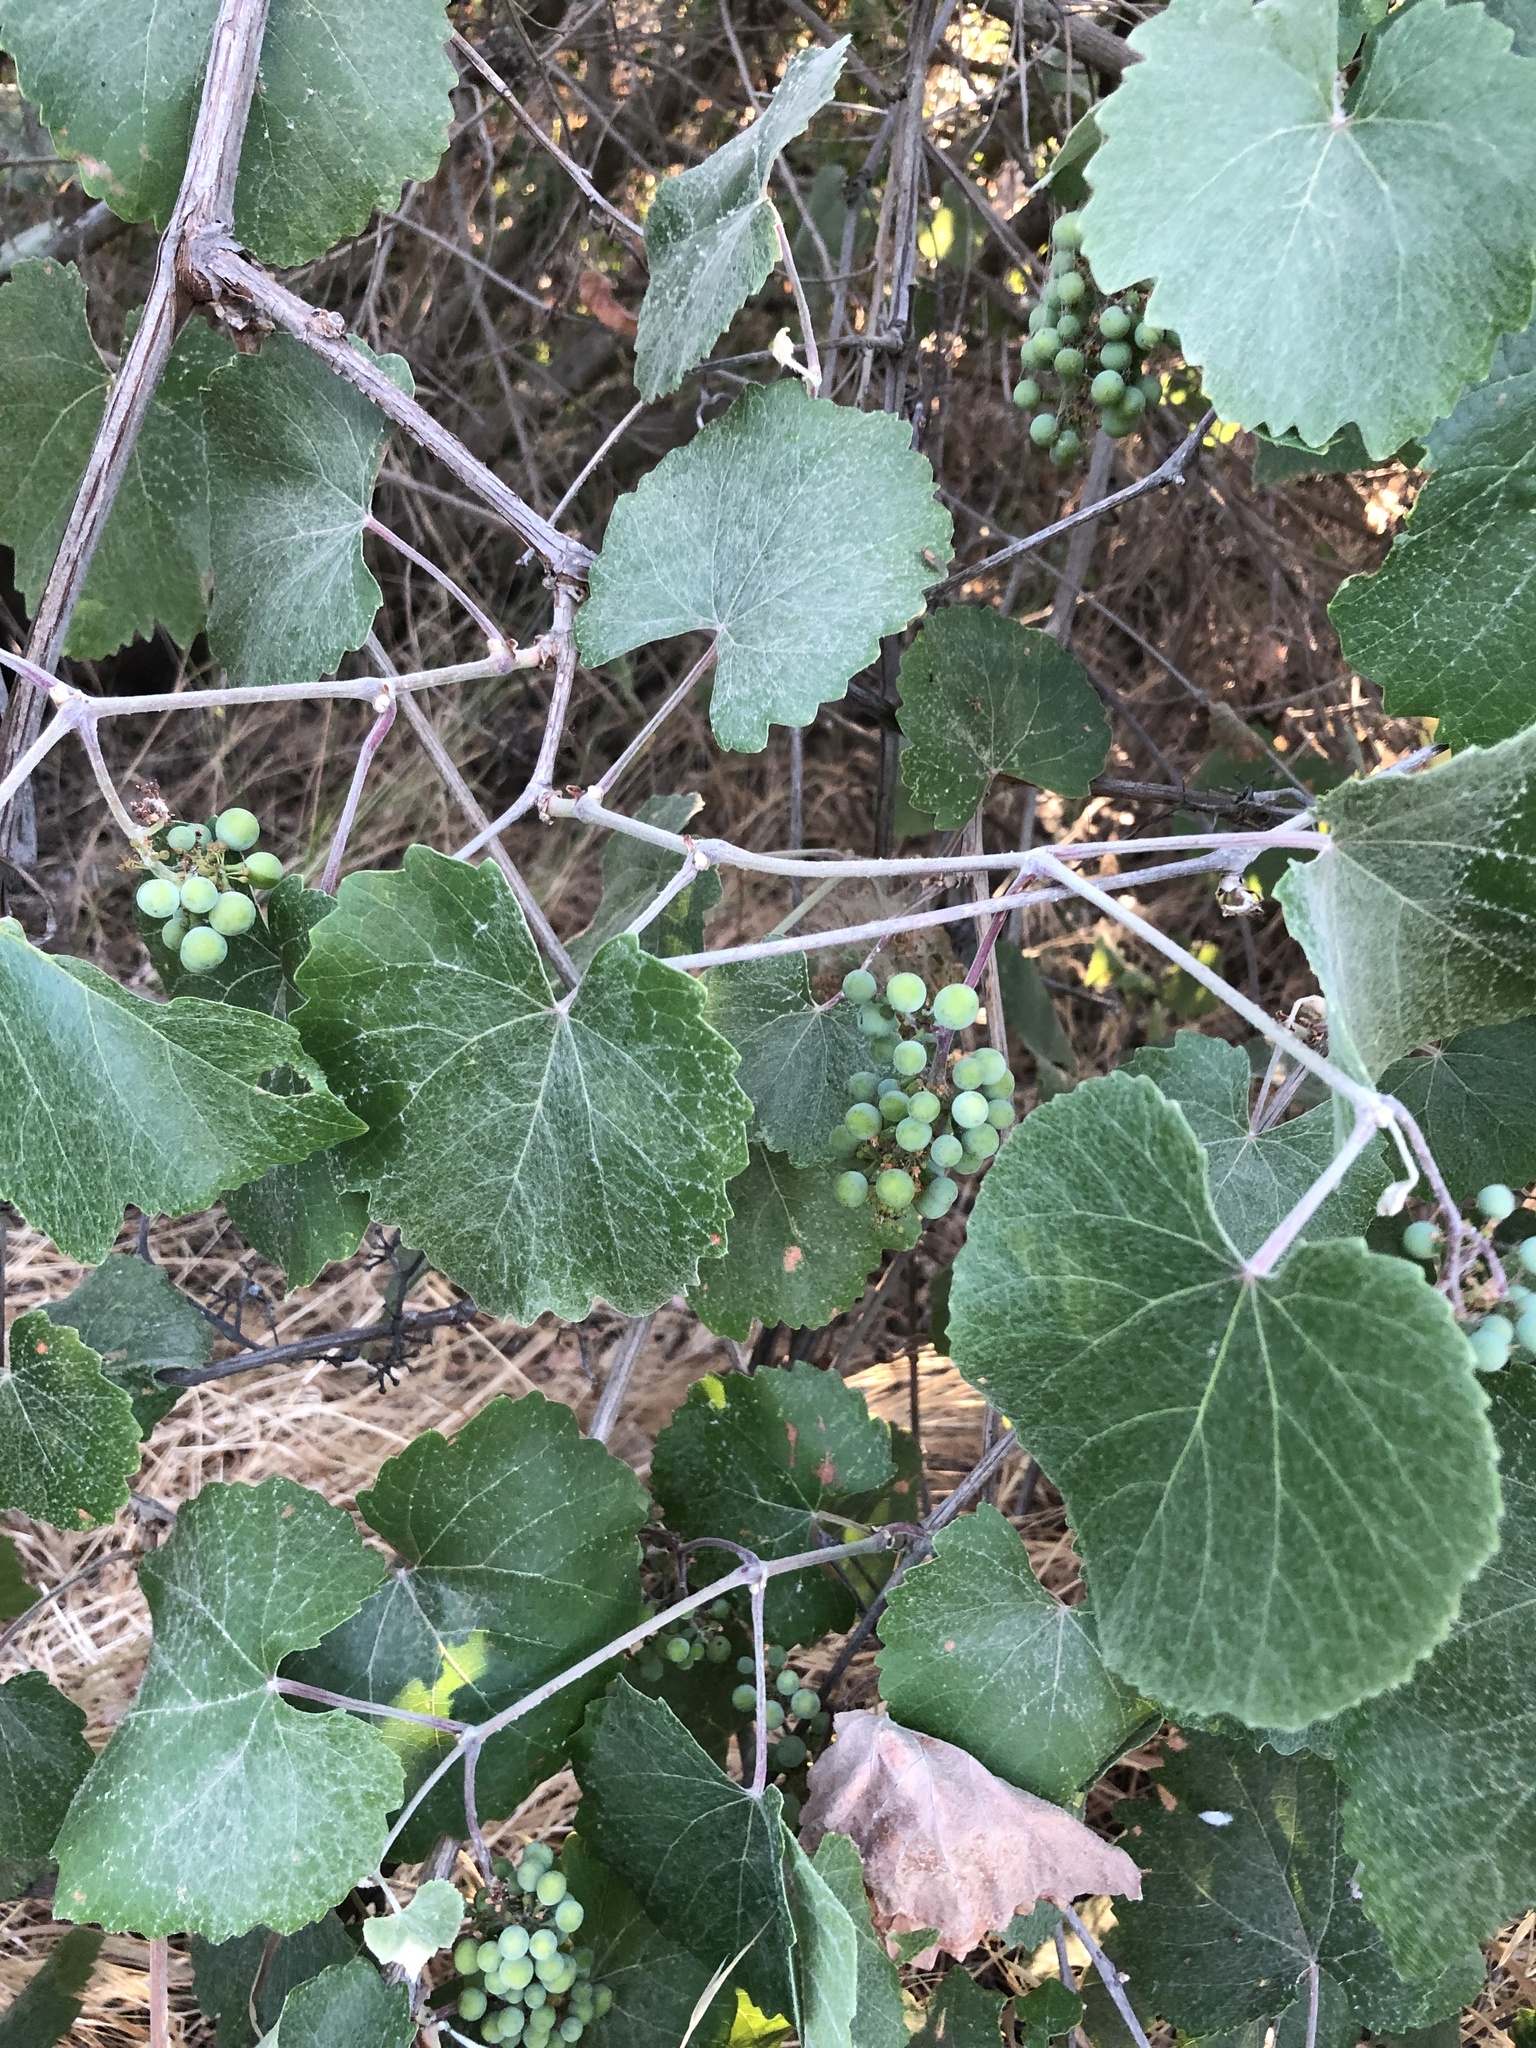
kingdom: Plantae
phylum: Tracheophyta
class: Magnoliopsida
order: Vitales
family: Vitaceae
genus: Vitis
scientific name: Vitis californica
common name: California wild grape
